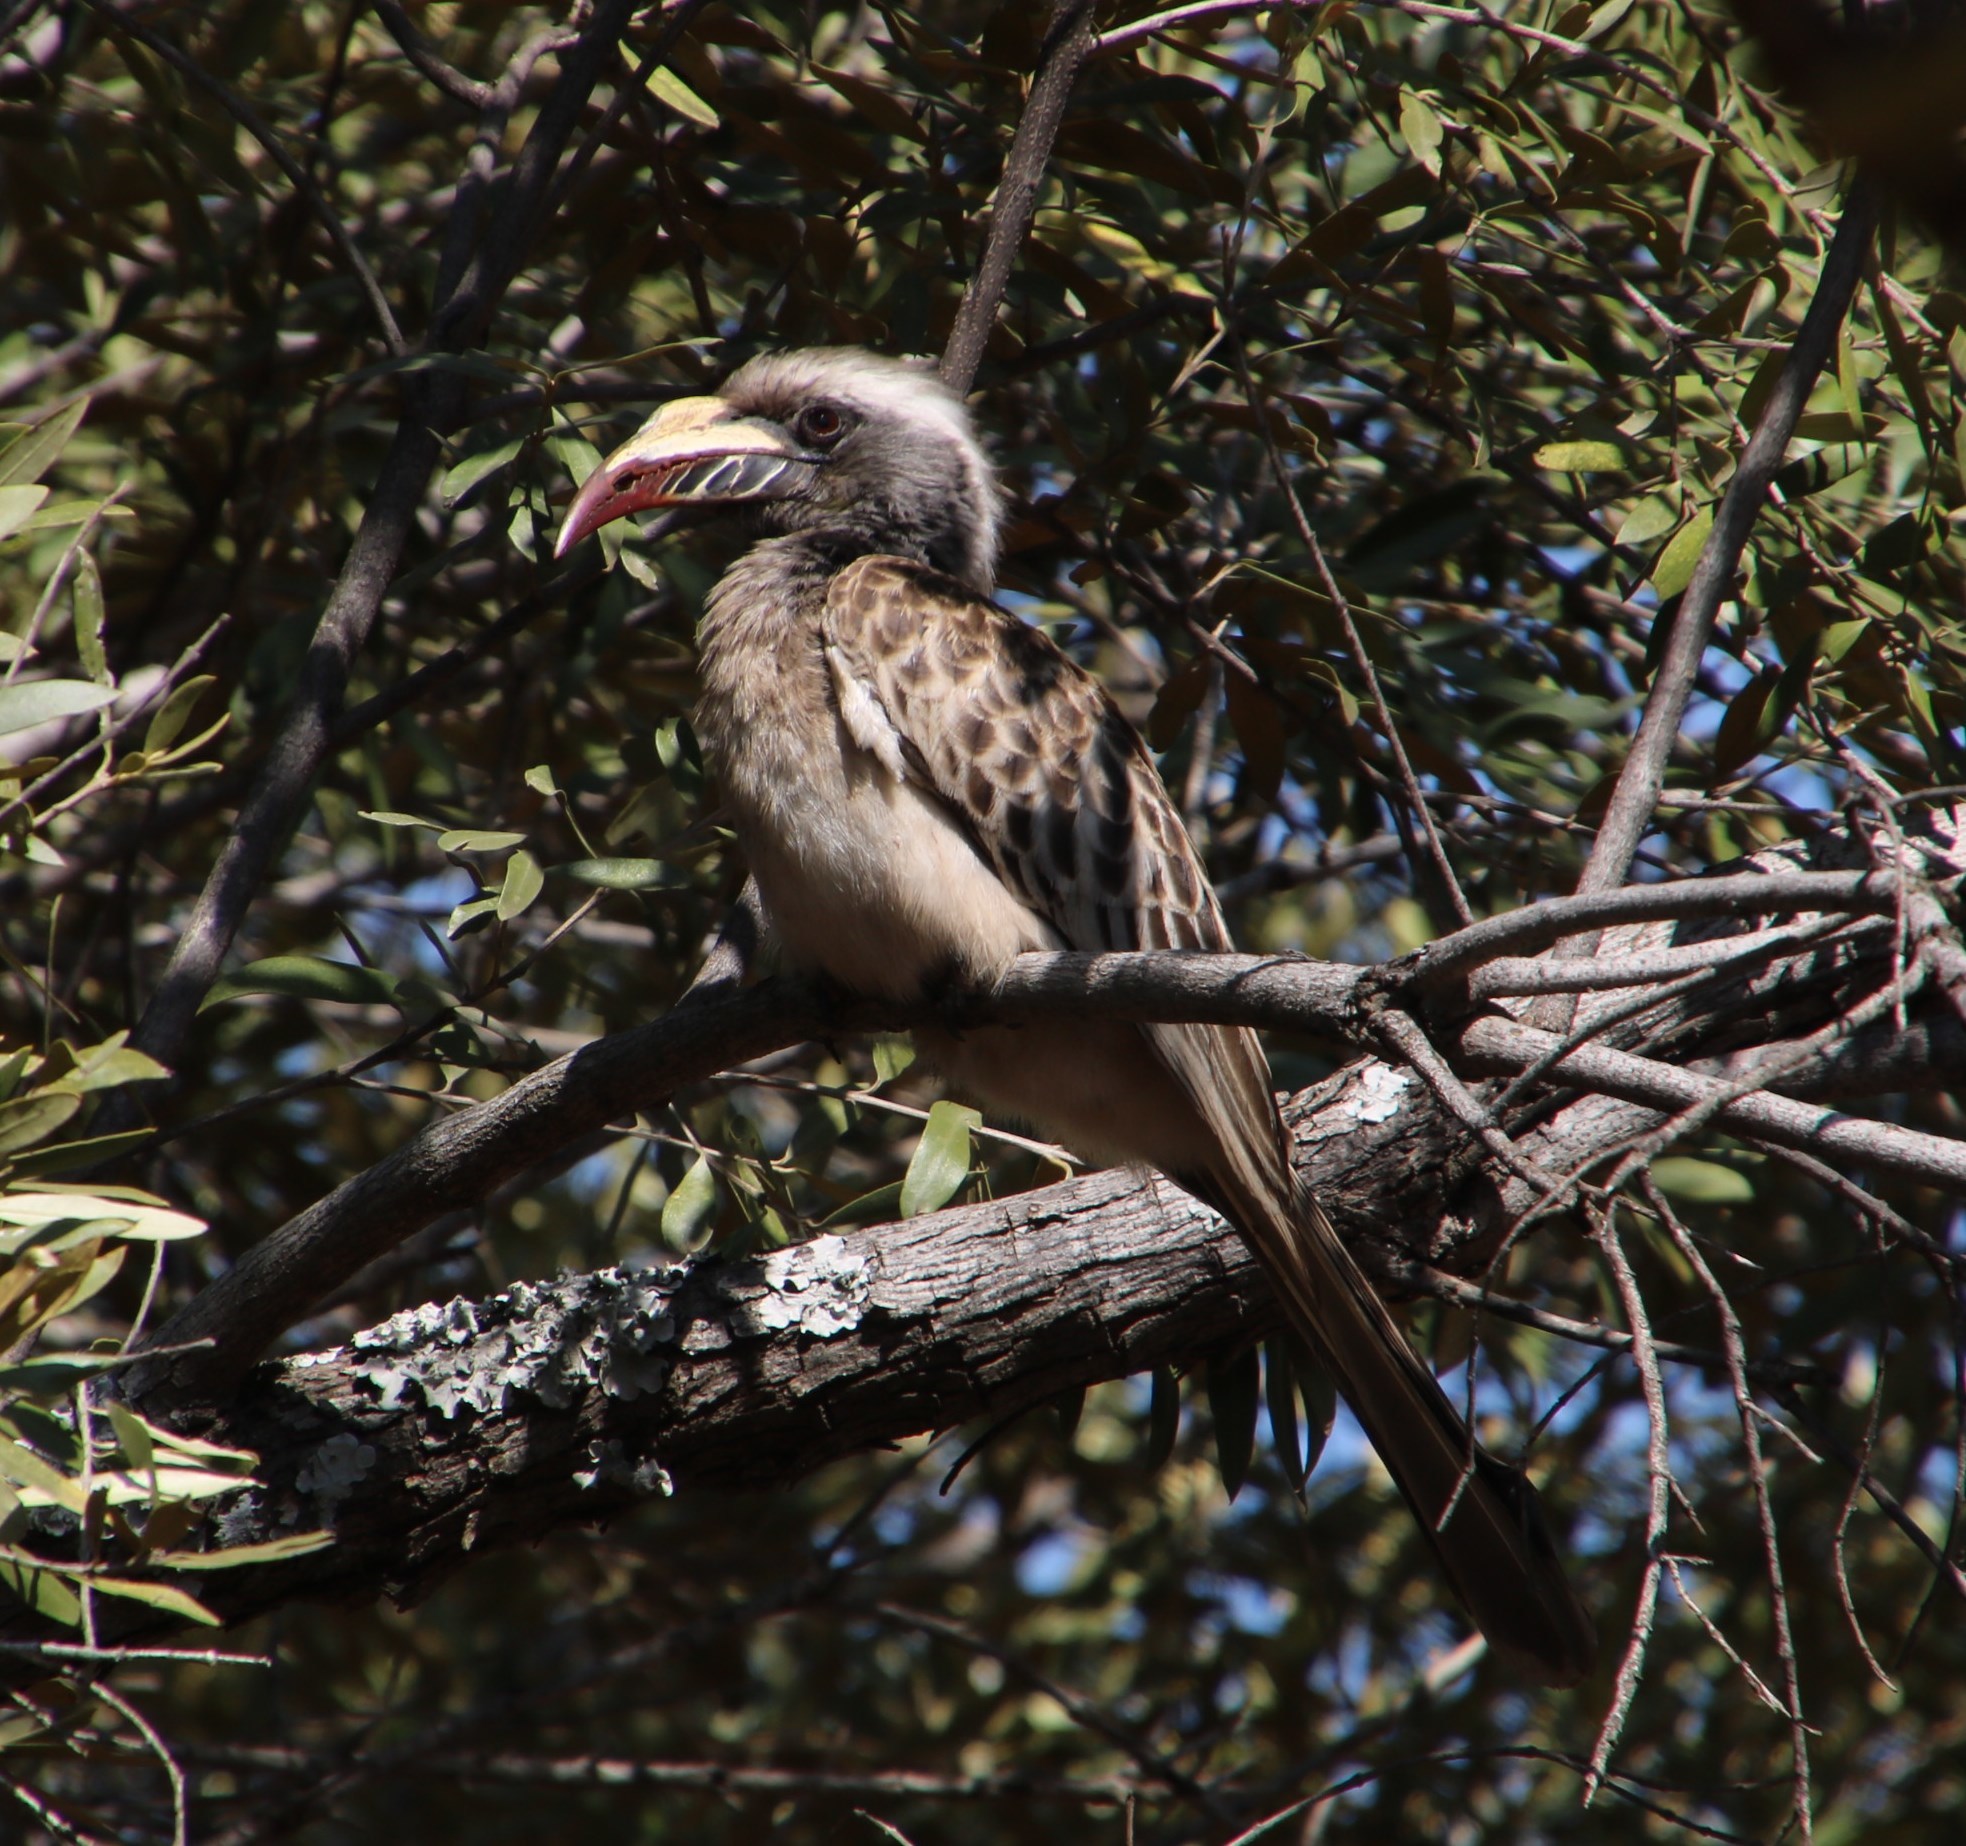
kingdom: Animalia
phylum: Chordata
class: Aves
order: Bucerotiformes
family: Bucerotidae
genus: Lophoceros
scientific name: Lophoceros nasutus
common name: African grey hornbill
